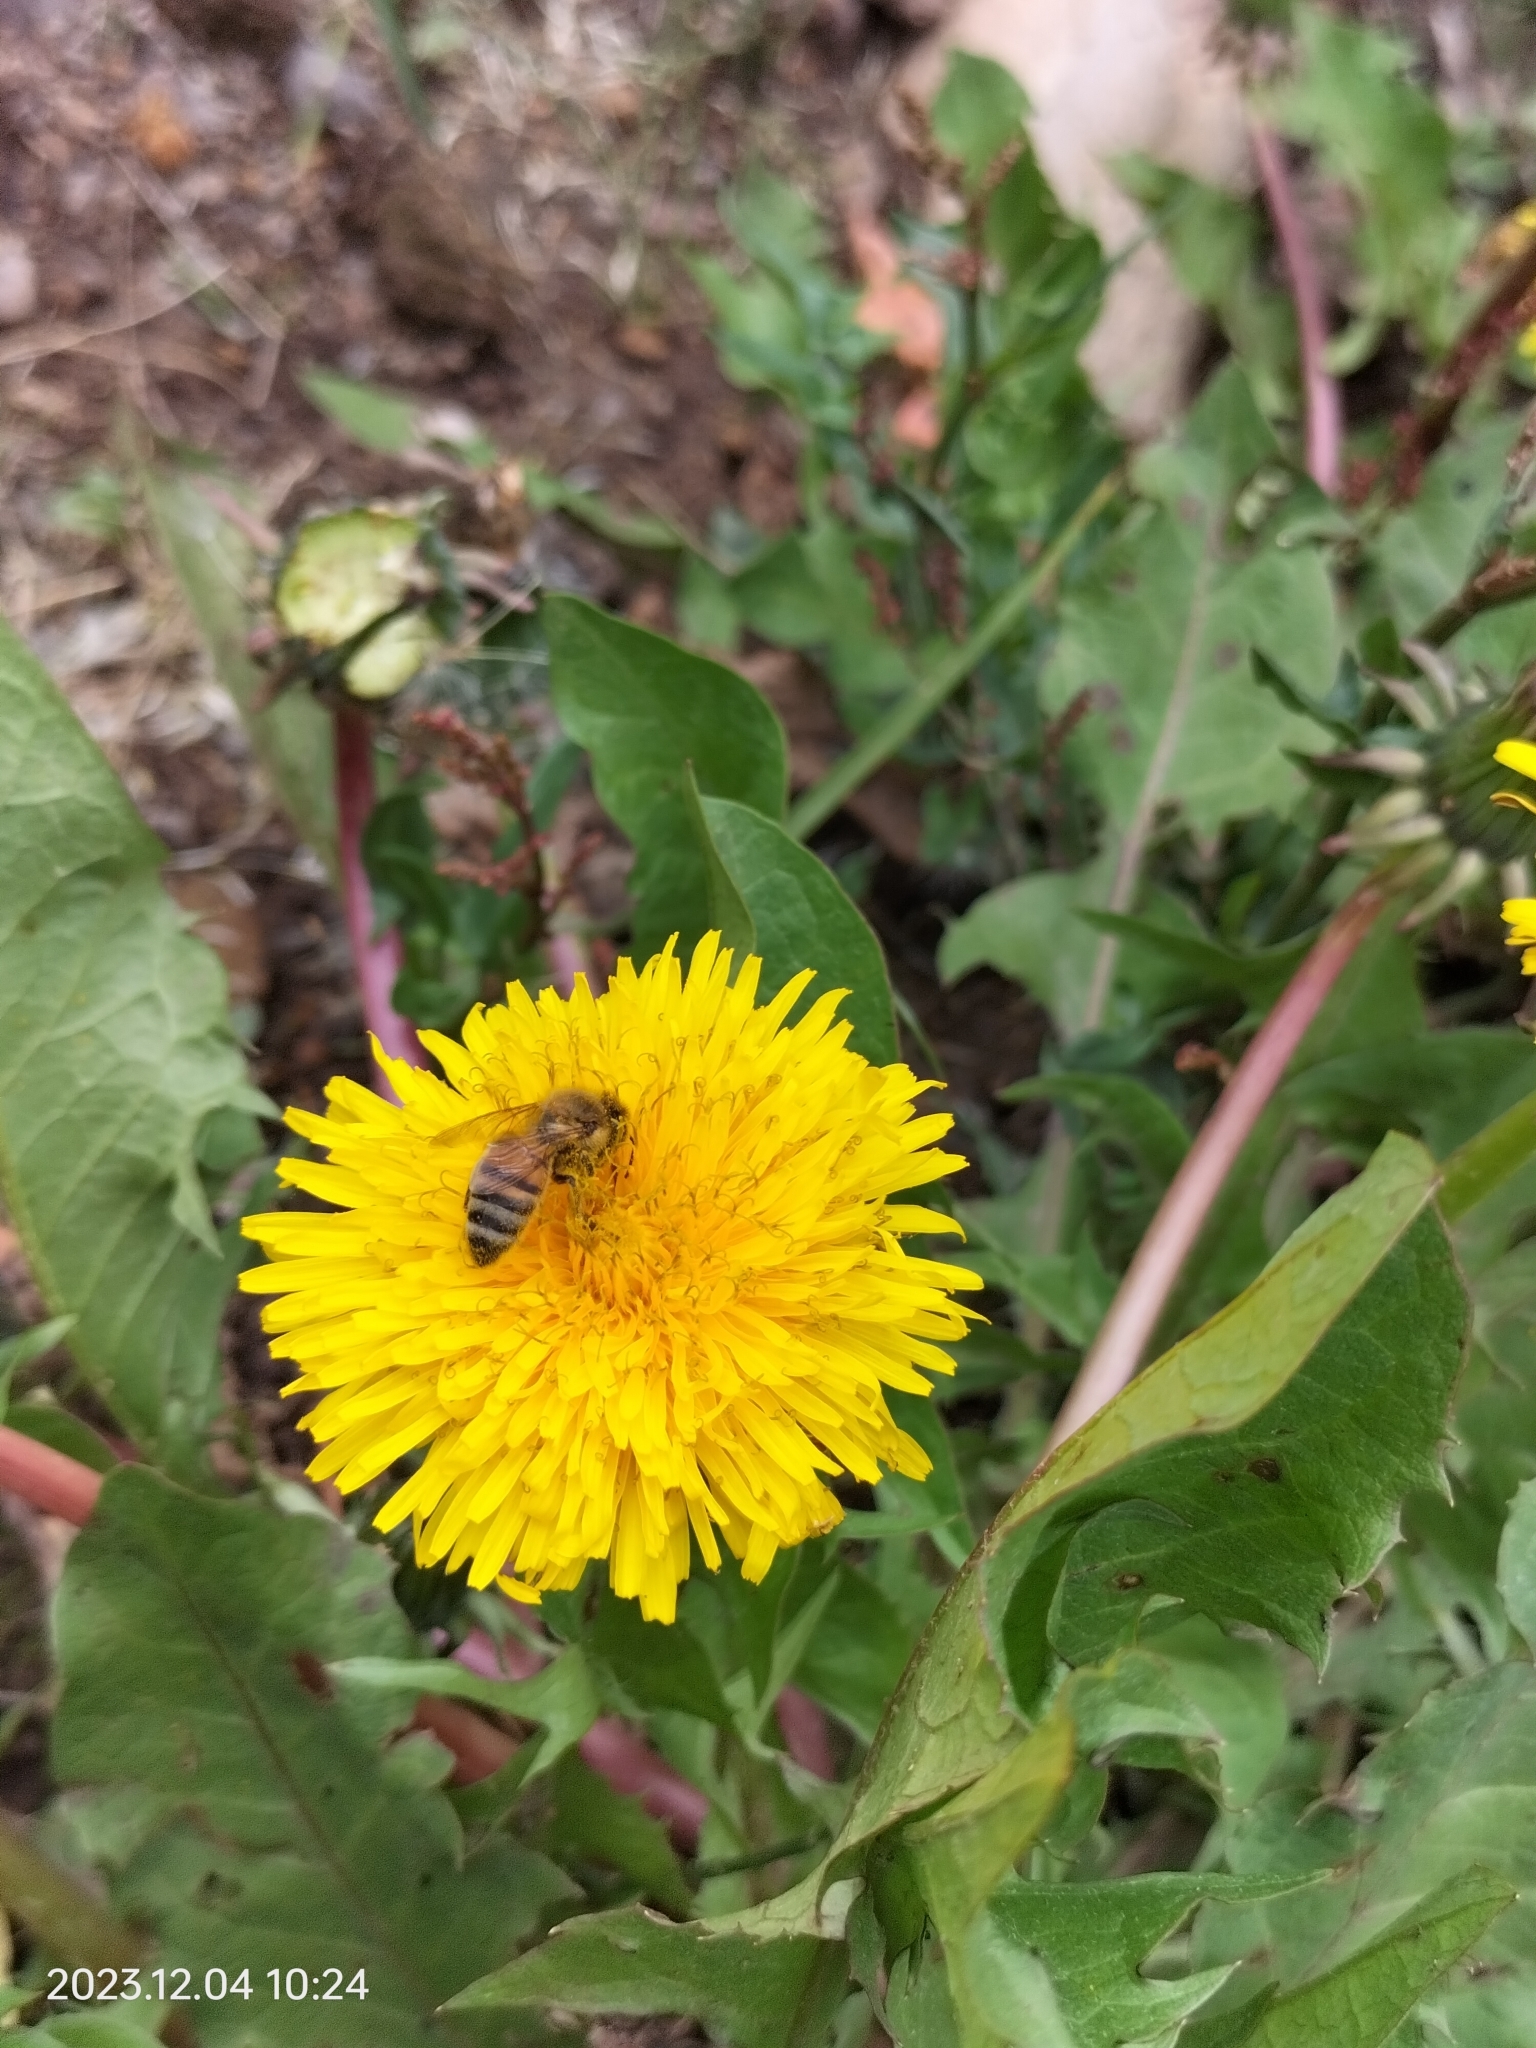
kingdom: Animalia
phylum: Arthropoda
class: Insecta
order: Hymenoptera
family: Apidae
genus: Apis
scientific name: Apis mellifera
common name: Honey bee
